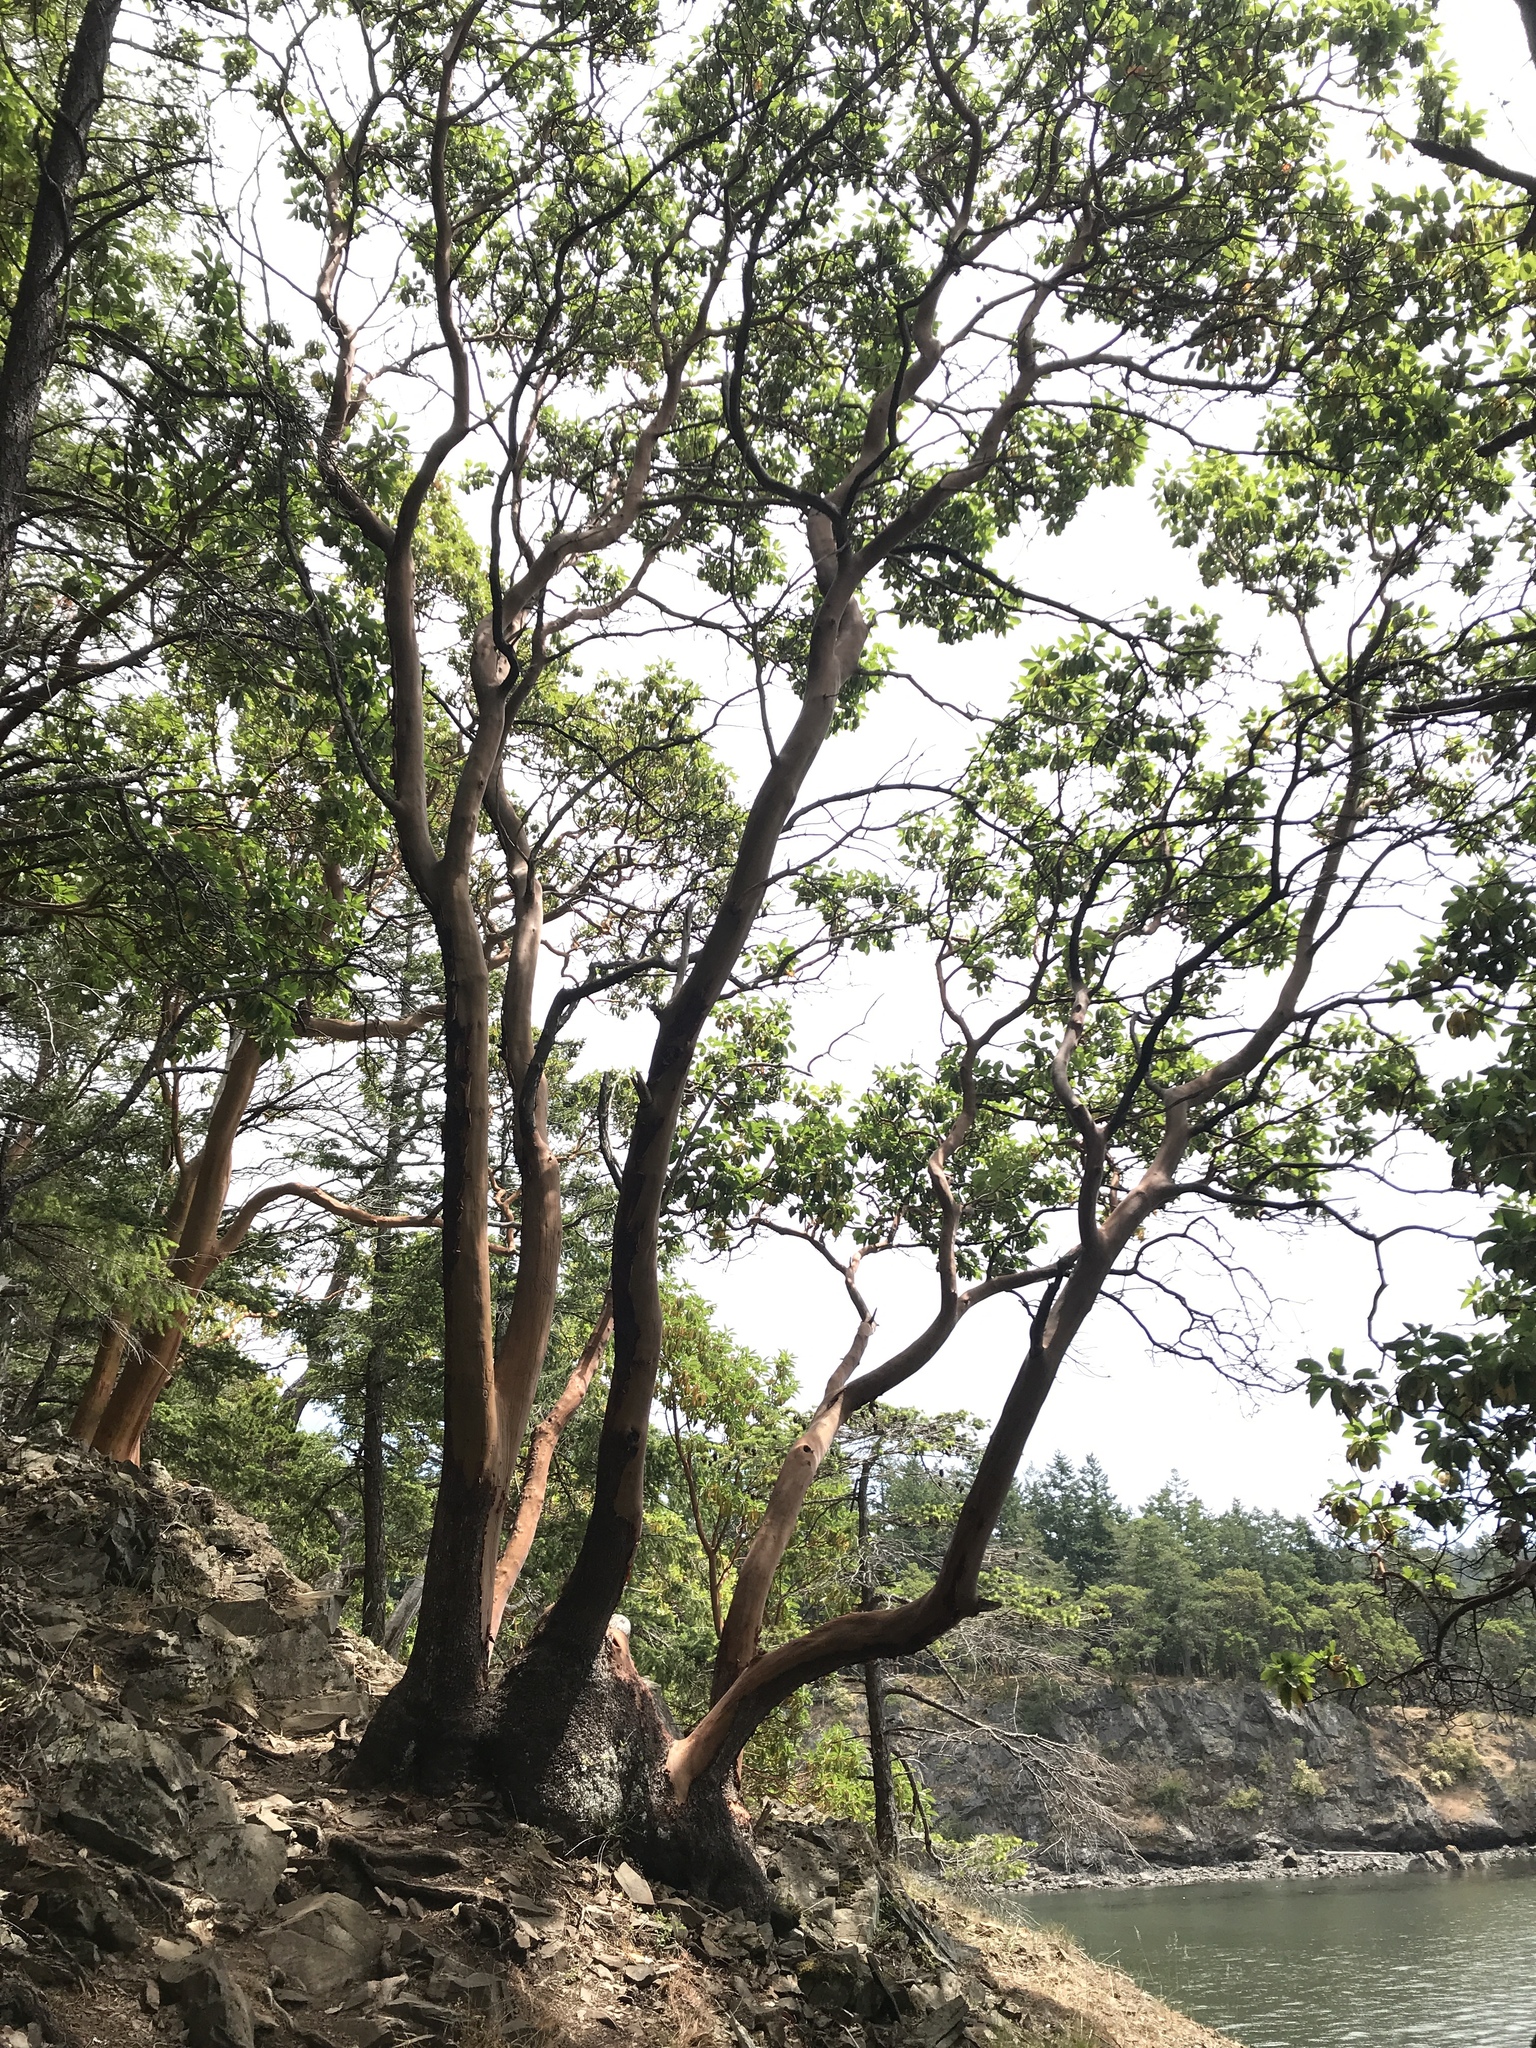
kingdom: Plantae
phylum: Tracheophyta
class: Magnoliopsida
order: Ericales
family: Ericaceae
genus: Arbutus
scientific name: Arbutus menziesii
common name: Pacific madrone
